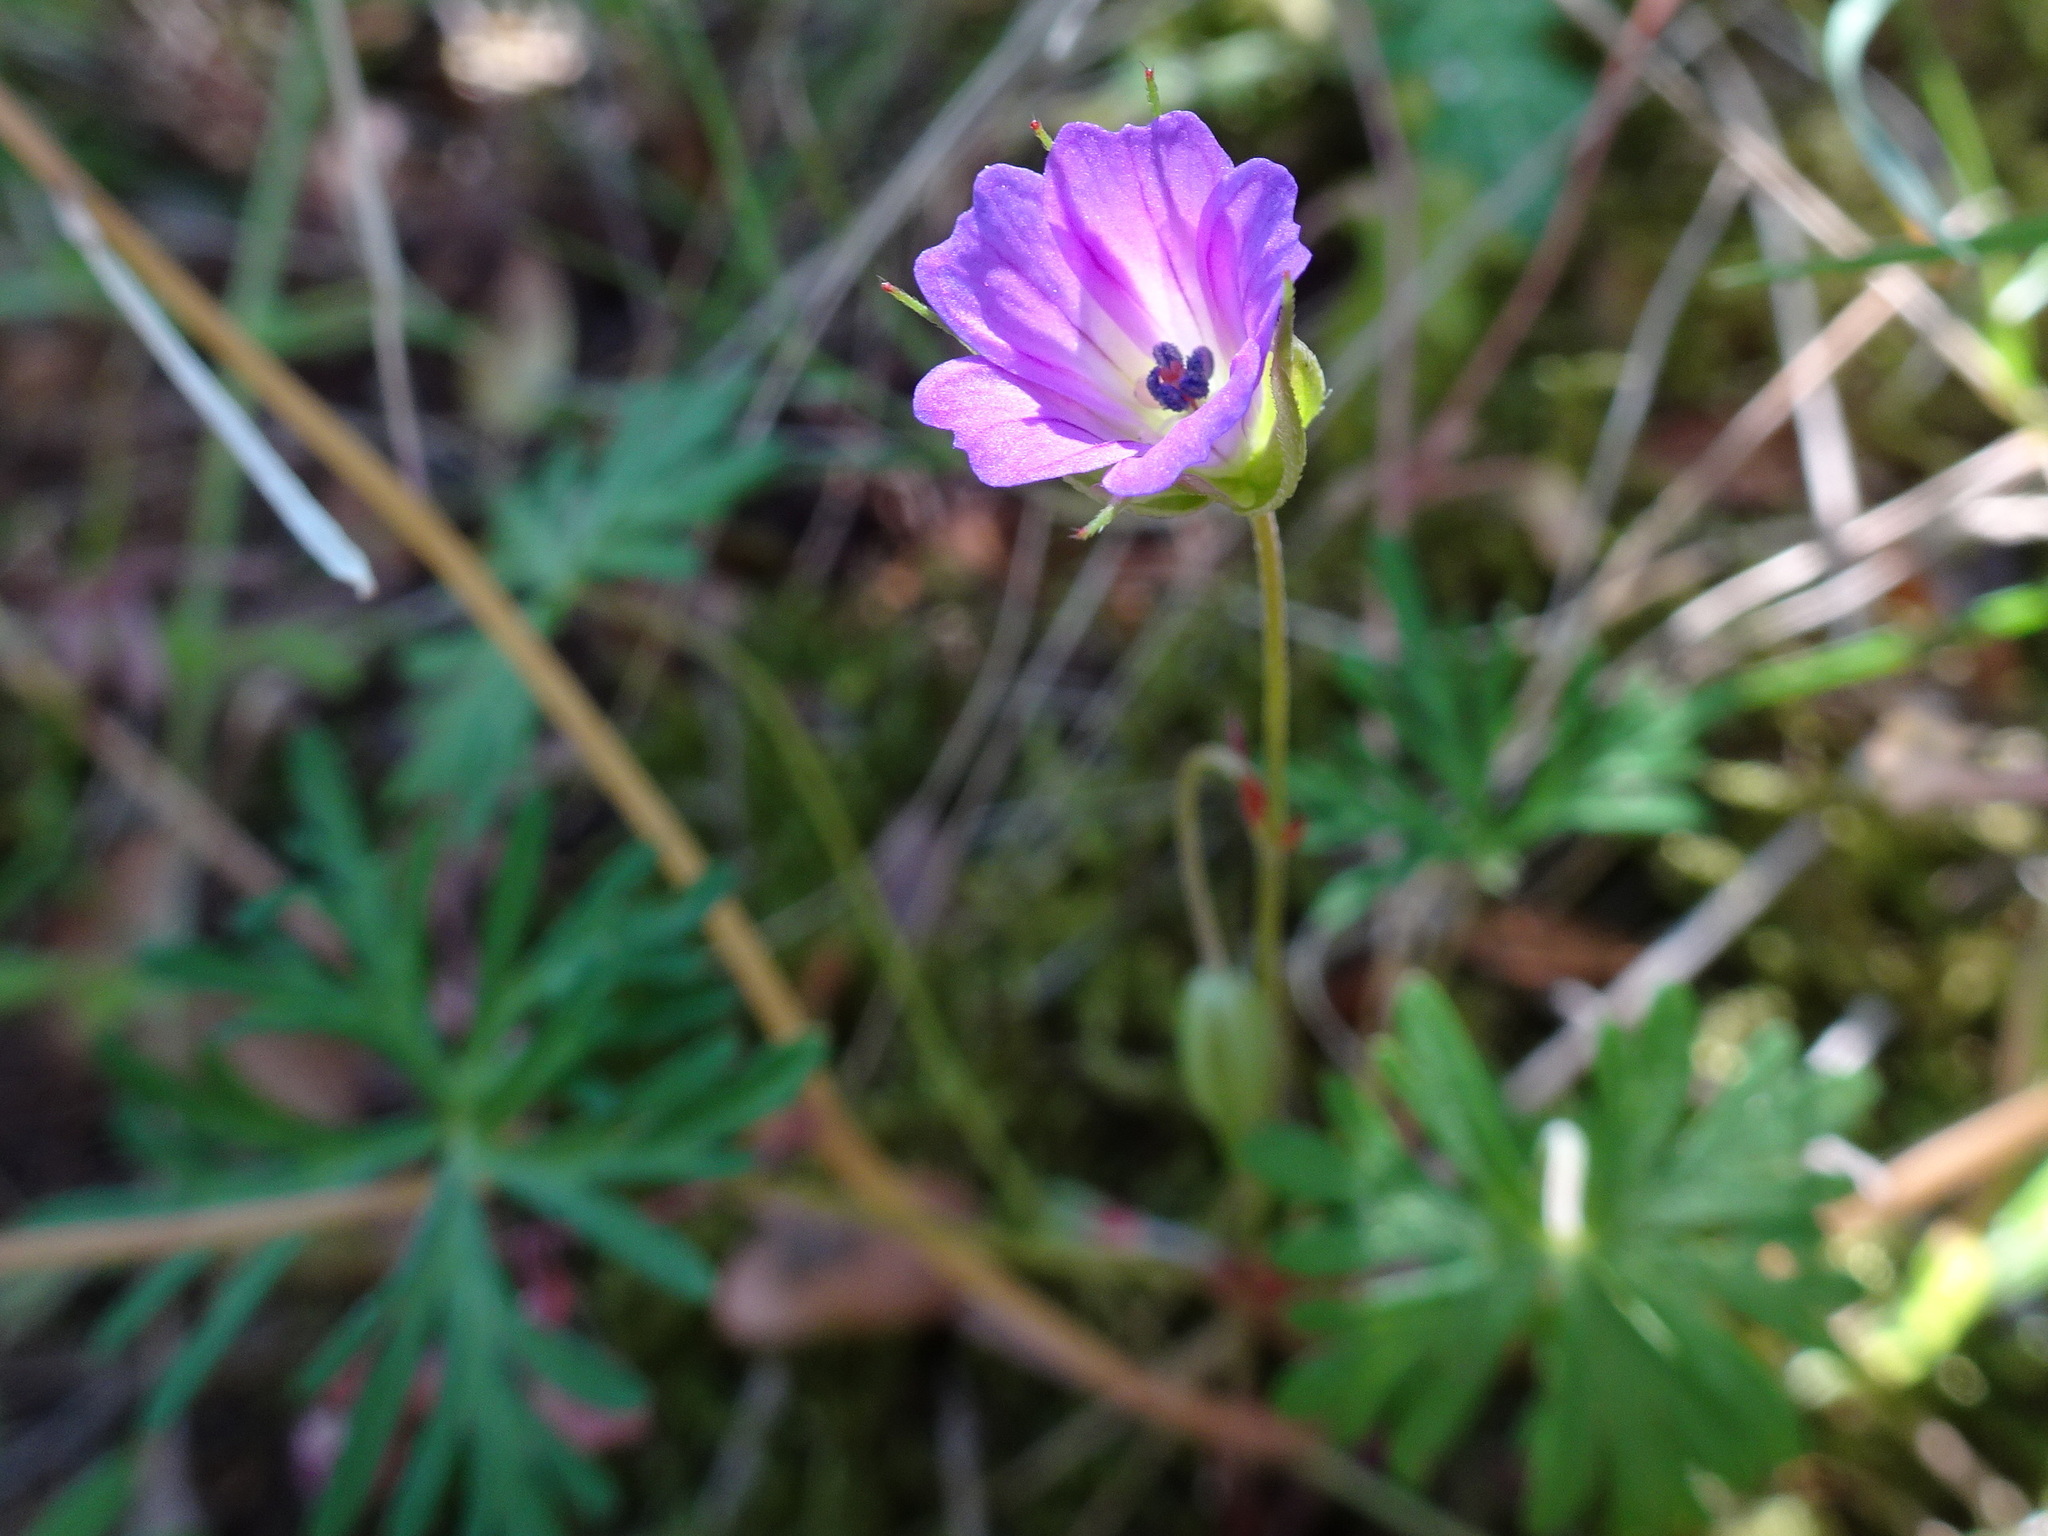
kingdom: Plantae
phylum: Tracheophyta
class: Magnoliopsida
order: Geraniales
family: Geraniaceae
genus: Geranium
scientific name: Geranium columbinum
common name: Long-stalked crane's-bill
